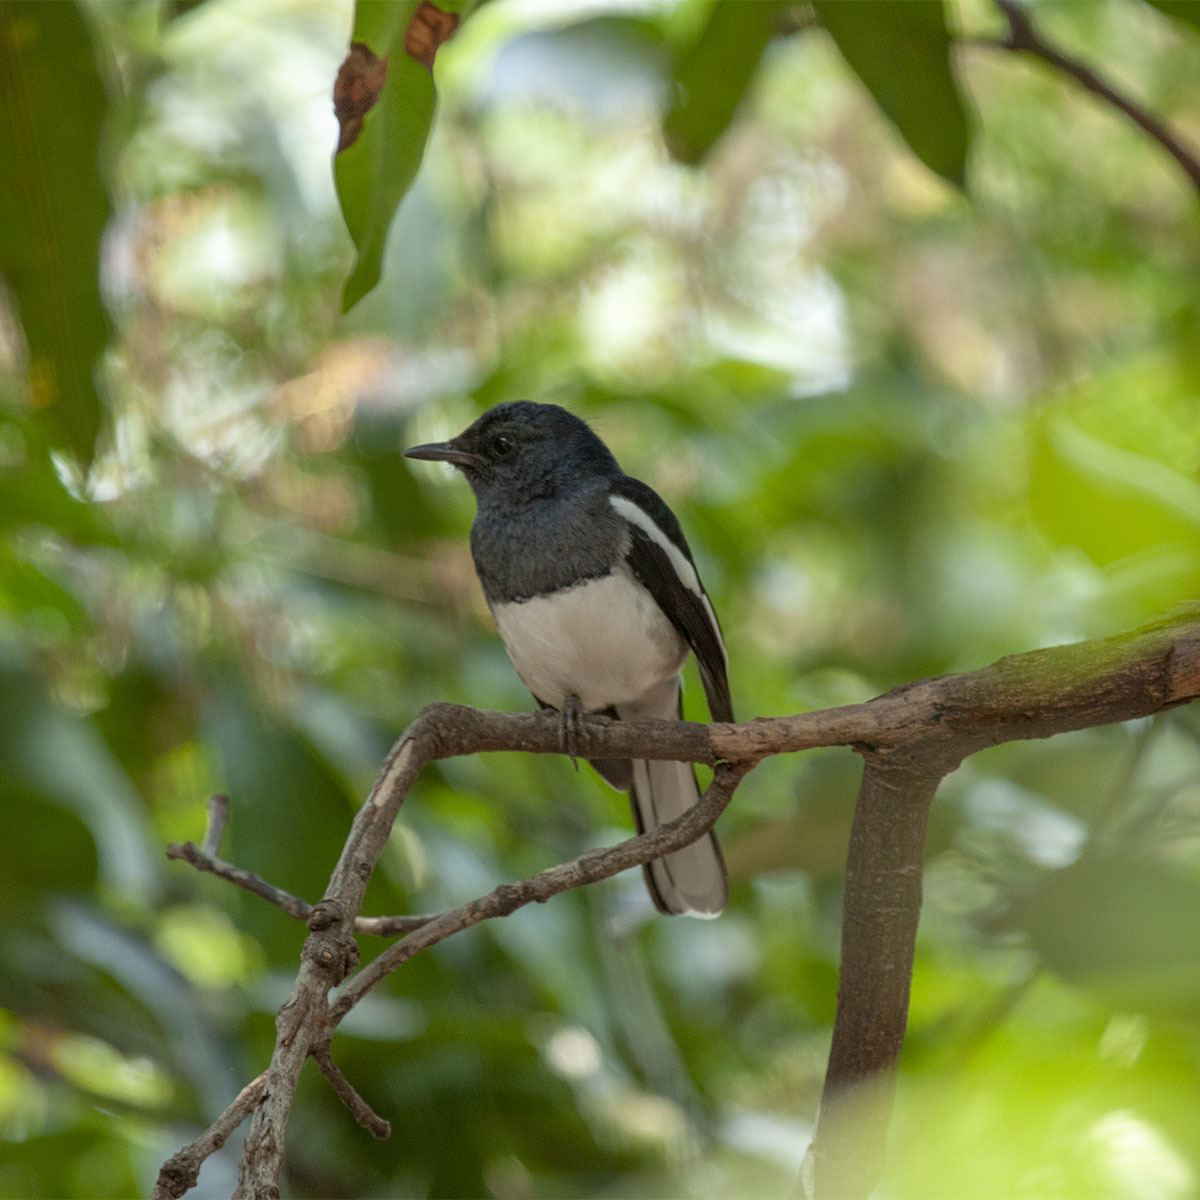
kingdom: Animalia
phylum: Chordata
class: Aves
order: Passeriformes
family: Muscicapidae
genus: Copsychus
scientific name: Copsychus saularis
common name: Oriental magpie-robin
